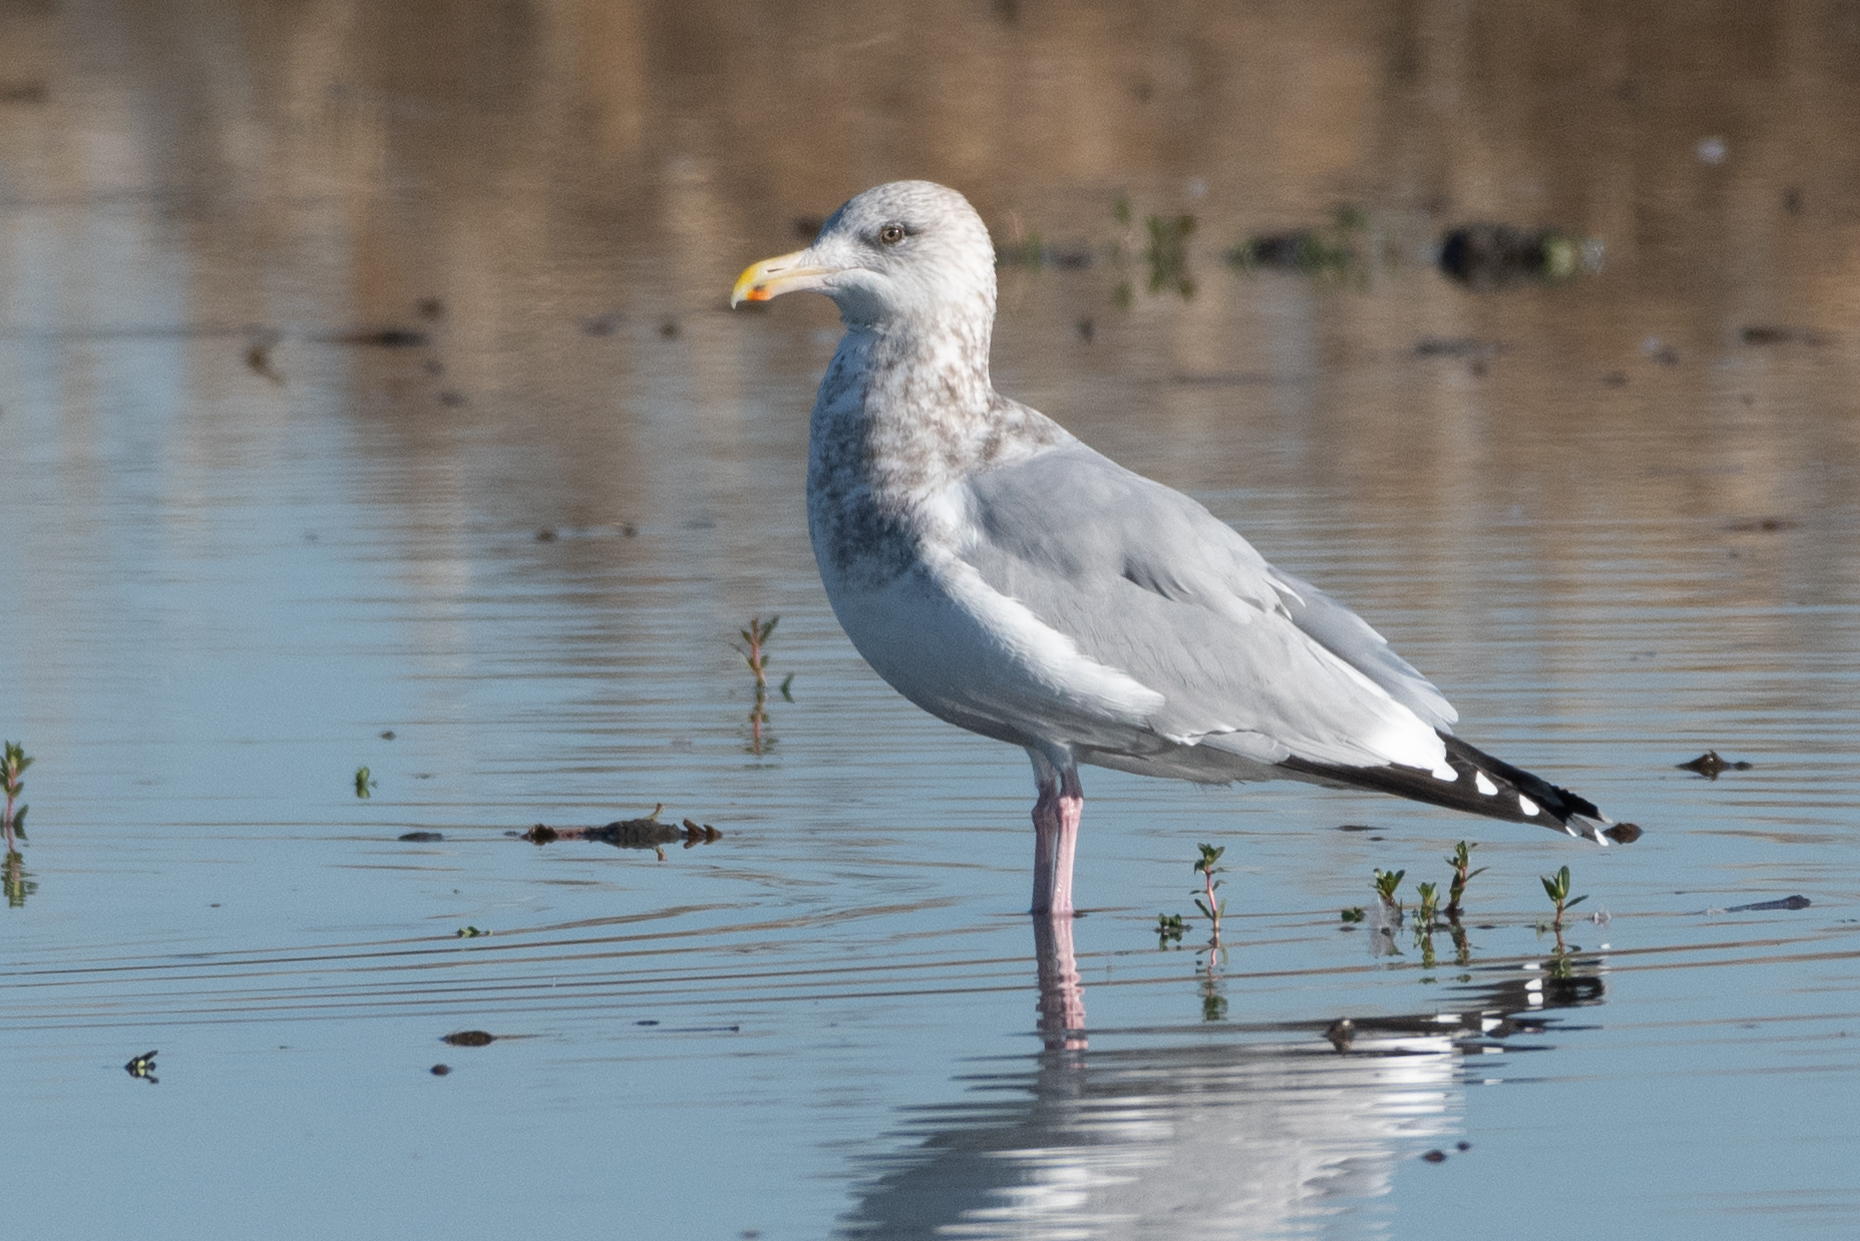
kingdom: Animalia
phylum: Chordata
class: Aves
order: Charadriiformes
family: Laridae
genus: Larus
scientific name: Larus argentatus
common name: Herring gull
